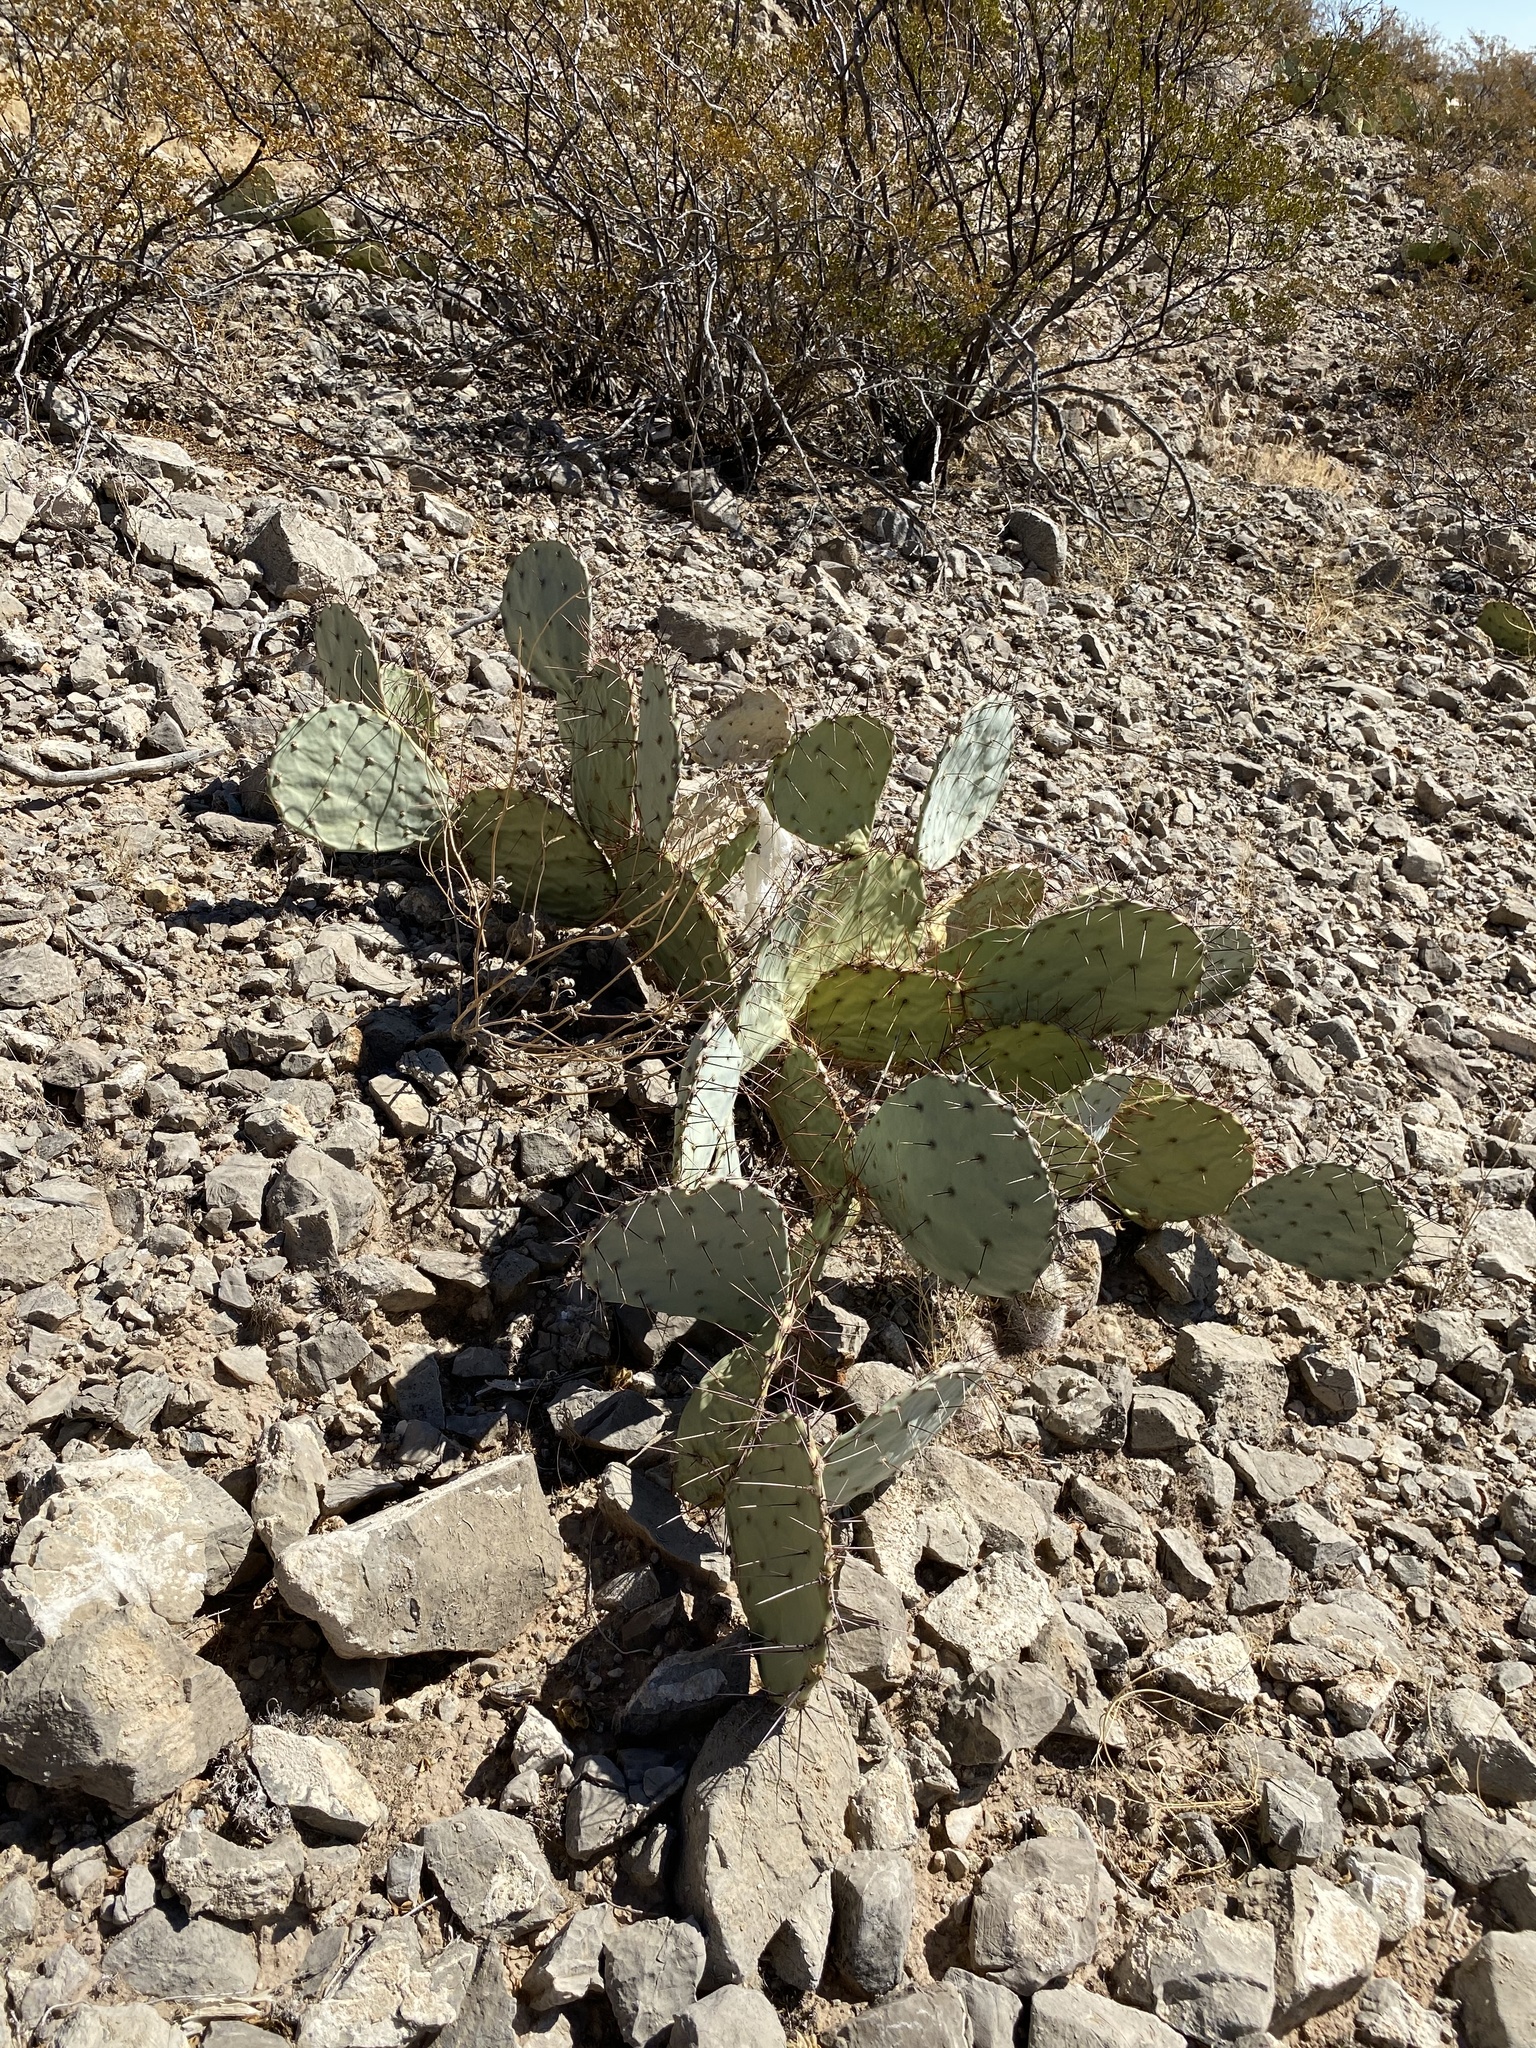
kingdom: Plantae
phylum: Tracheophyta
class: Magnoliopsida
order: Caryophyllales
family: Cactaceae
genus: Opuntia
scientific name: Opuntia engelmannii
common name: Cactus-apple
